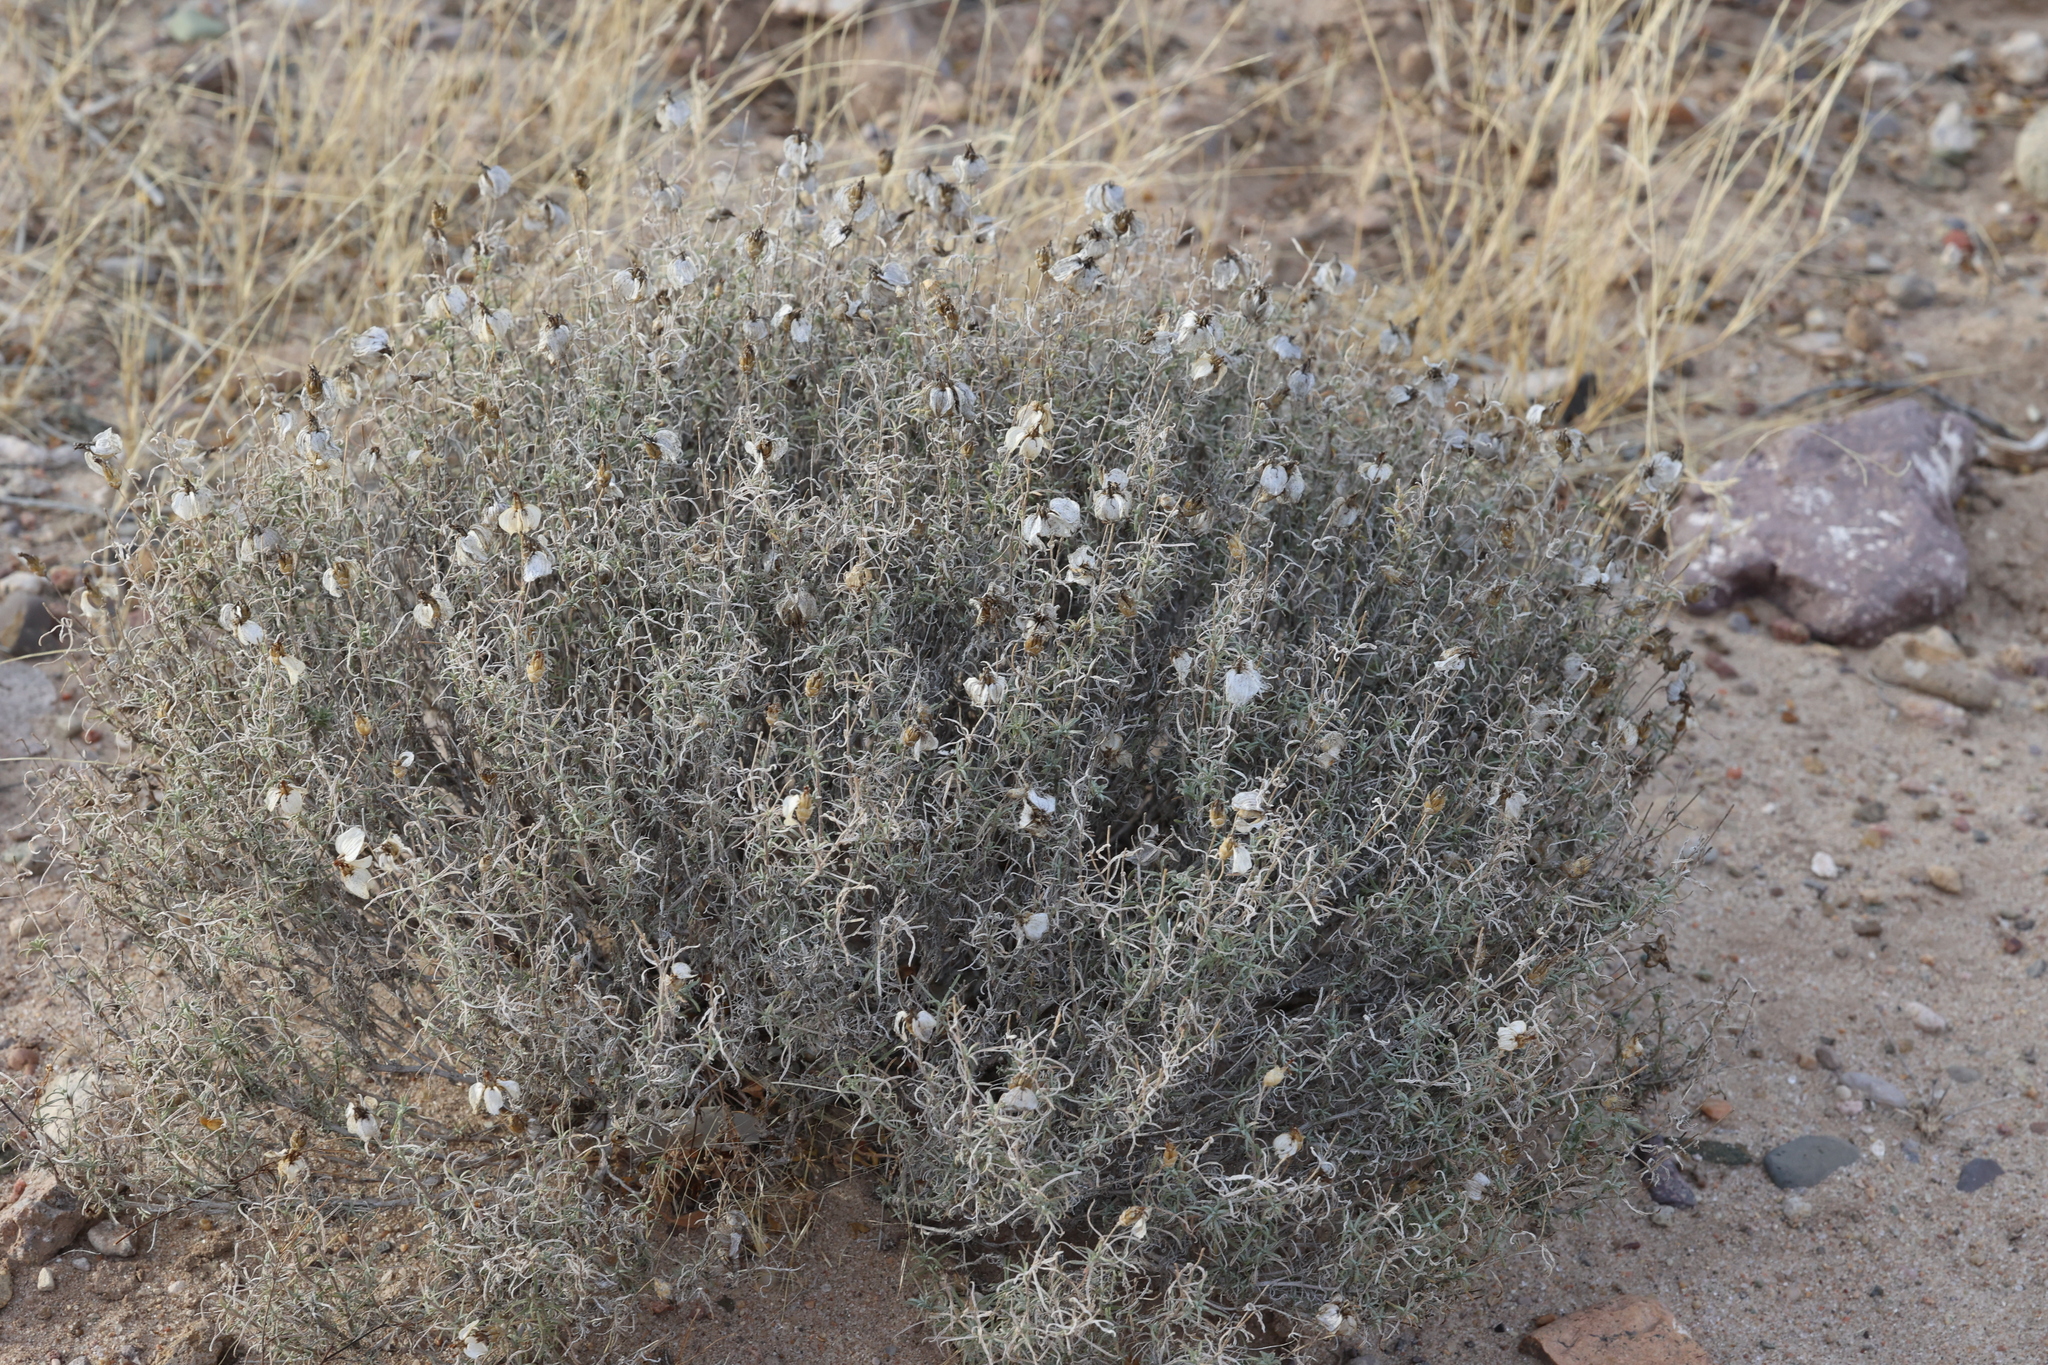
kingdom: Plantae
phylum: Tracheophyta
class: Magnoliopsida
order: Asterales
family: Asteraceae
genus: Zinnia
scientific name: Zinnia acerosa
